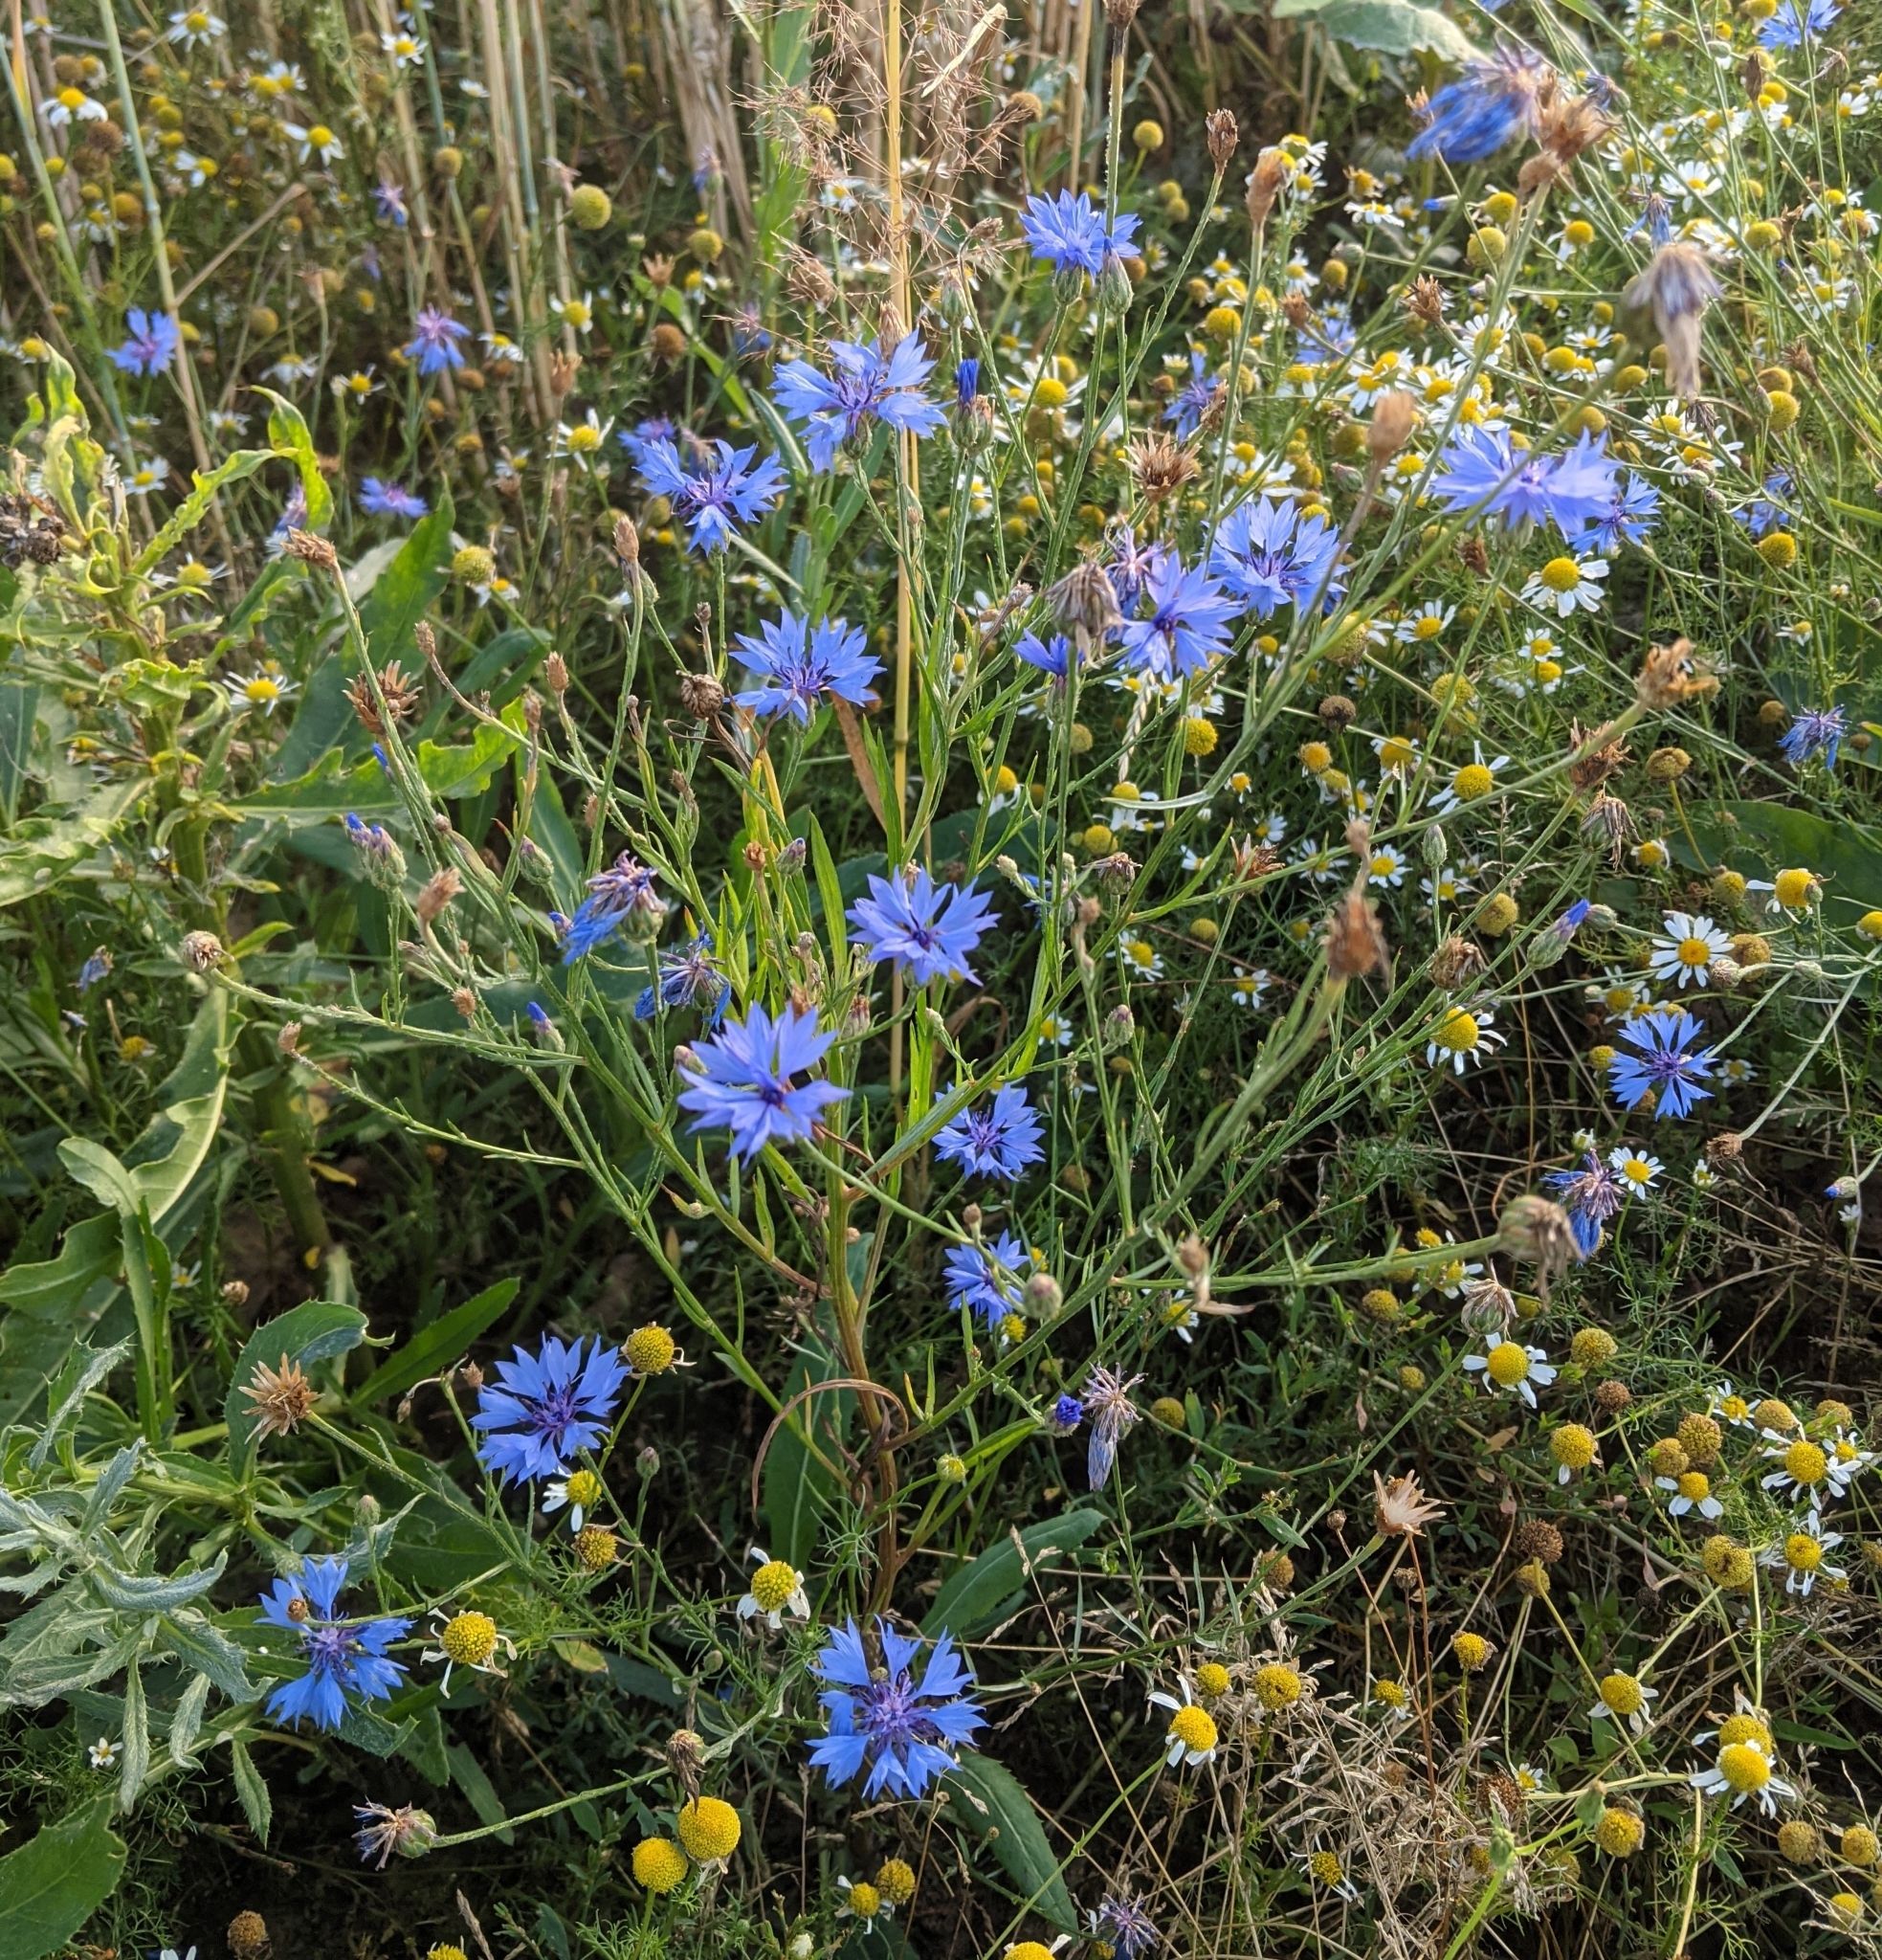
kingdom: Plantae
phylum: Tracheophyta
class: Magnoliopsida
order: Asterales
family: Asteraceae
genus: Centaurea
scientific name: Centaurea cyanus
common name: Cornflower
